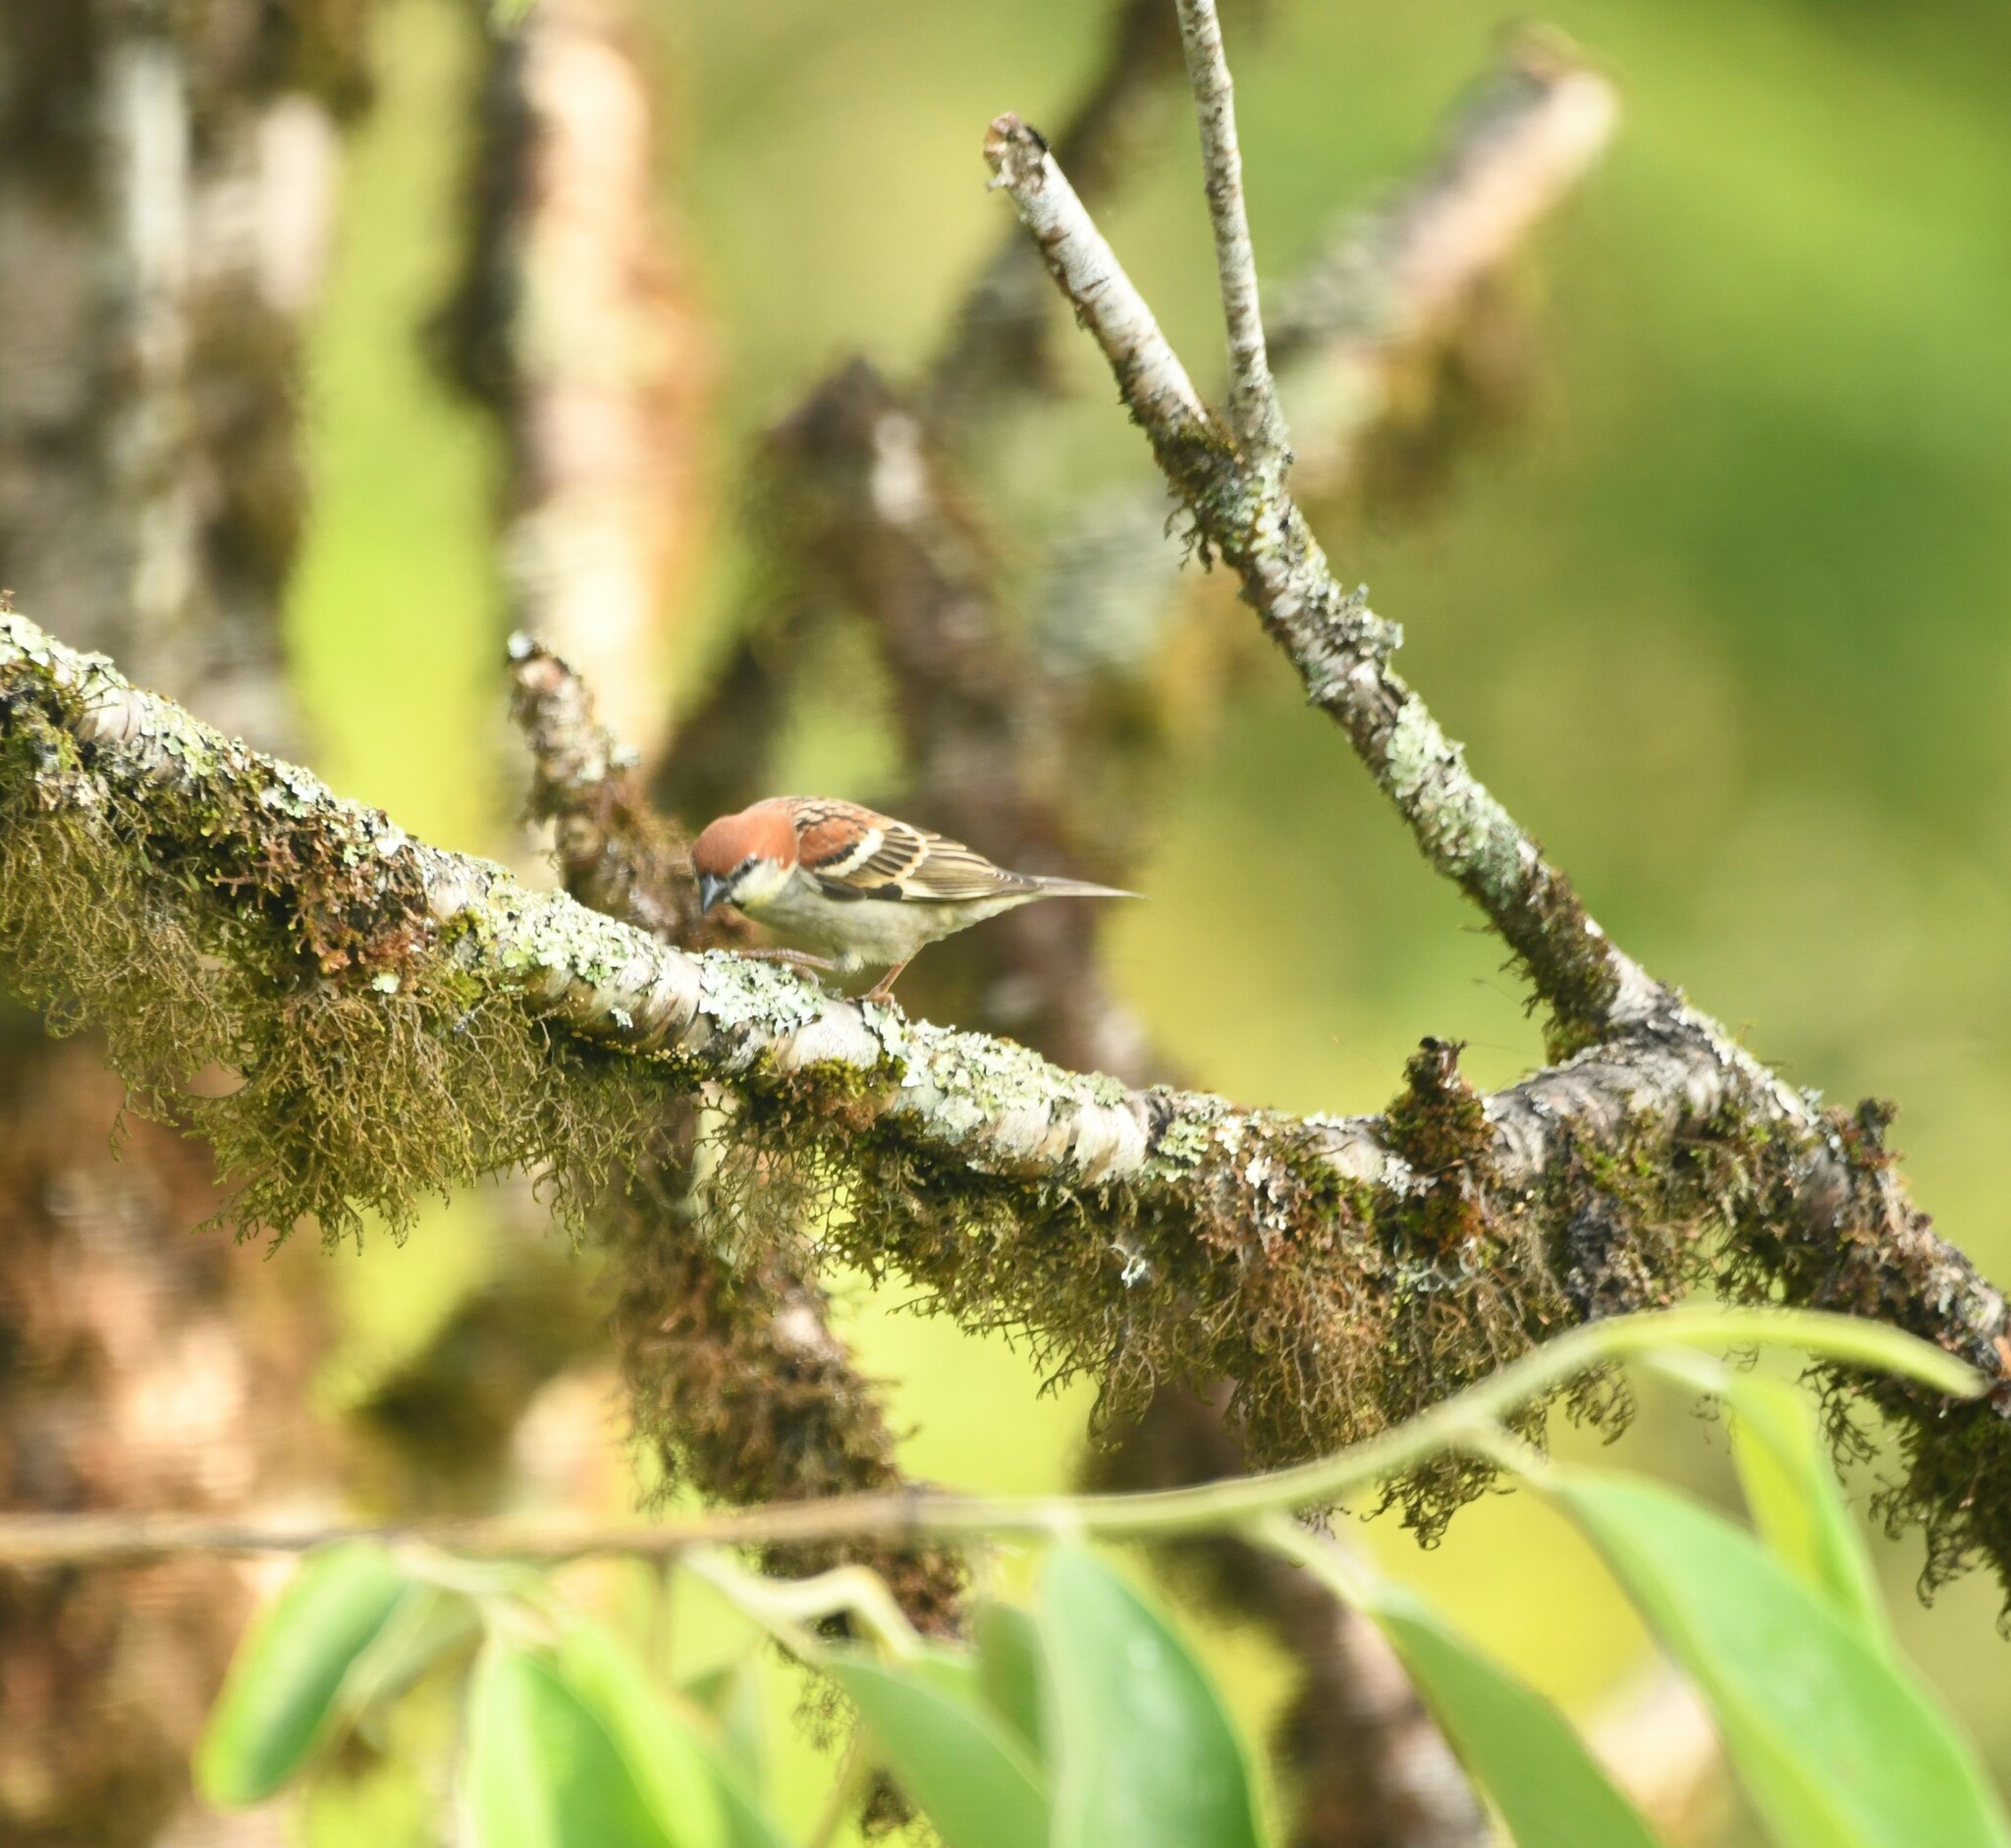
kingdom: Animalia
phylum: Chordata
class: Aves
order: Passeriformes
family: Passeridae
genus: Passer
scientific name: Passer cinnamomeus
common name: Russet sparrow
